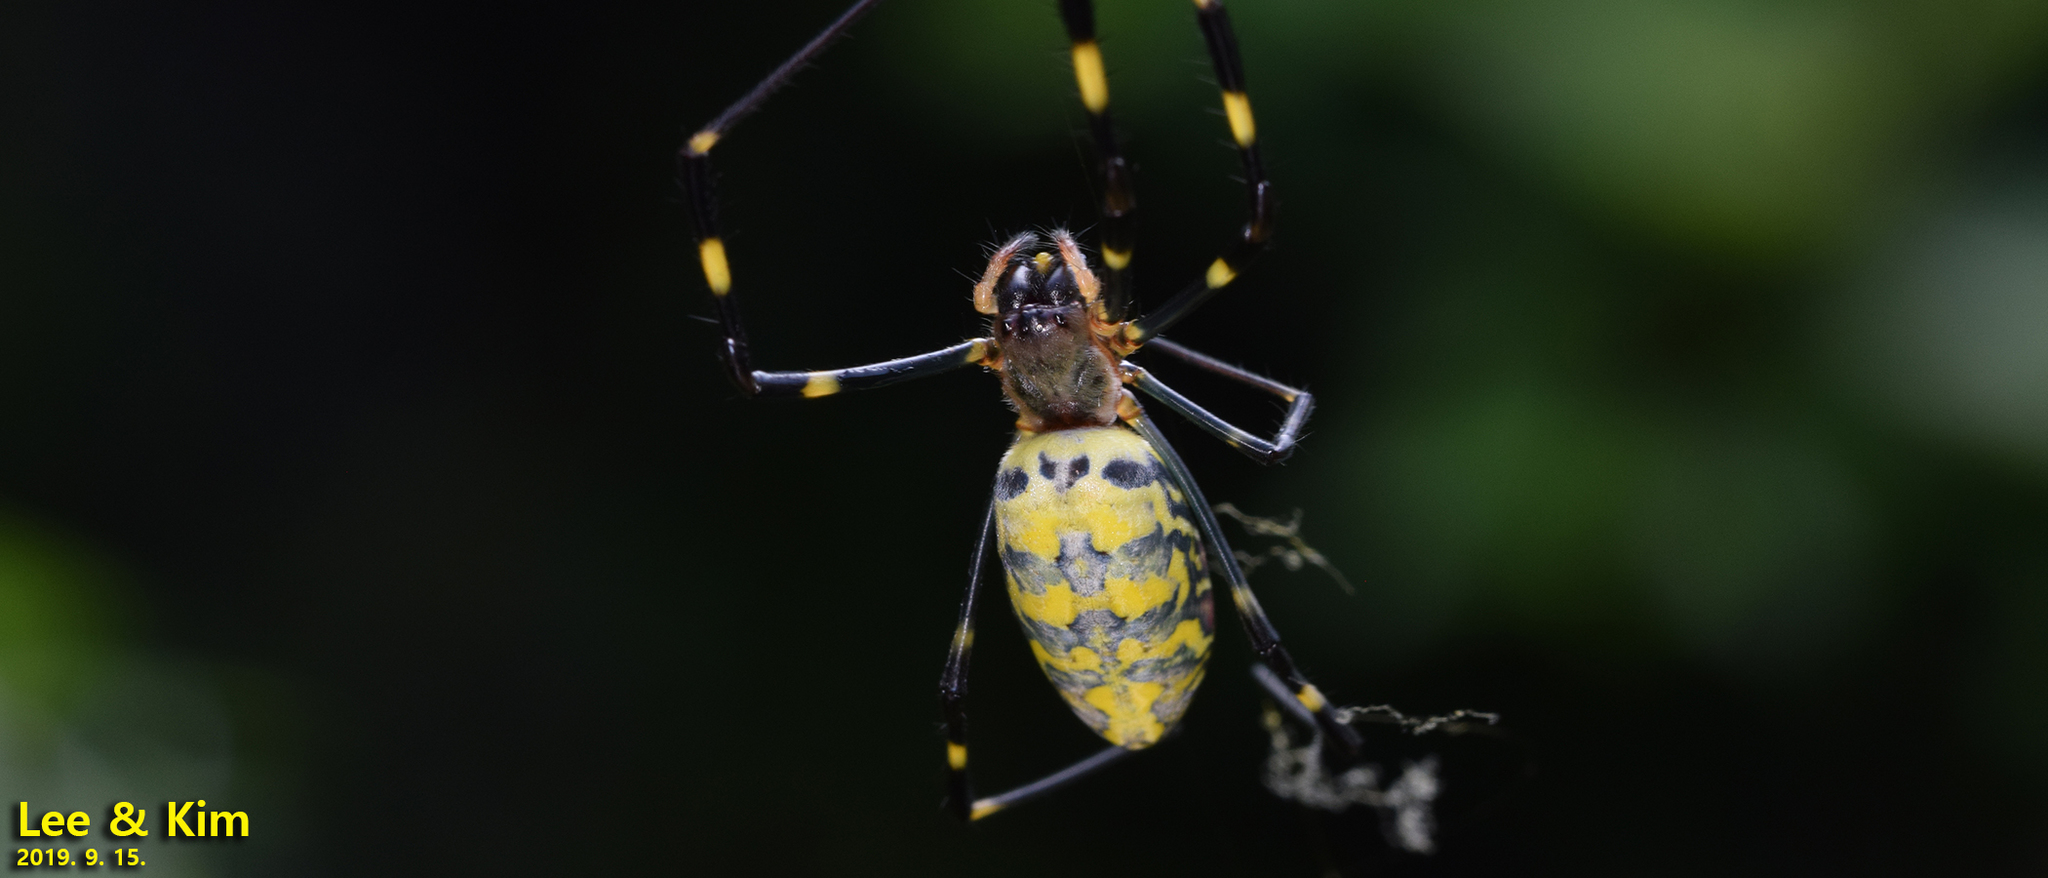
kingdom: Animalia
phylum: Arthropoda
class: Arachnida
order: Araneae
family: Araneidae
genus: Trichonephila
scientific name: Trichonephila clavata
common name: Jorō spider
